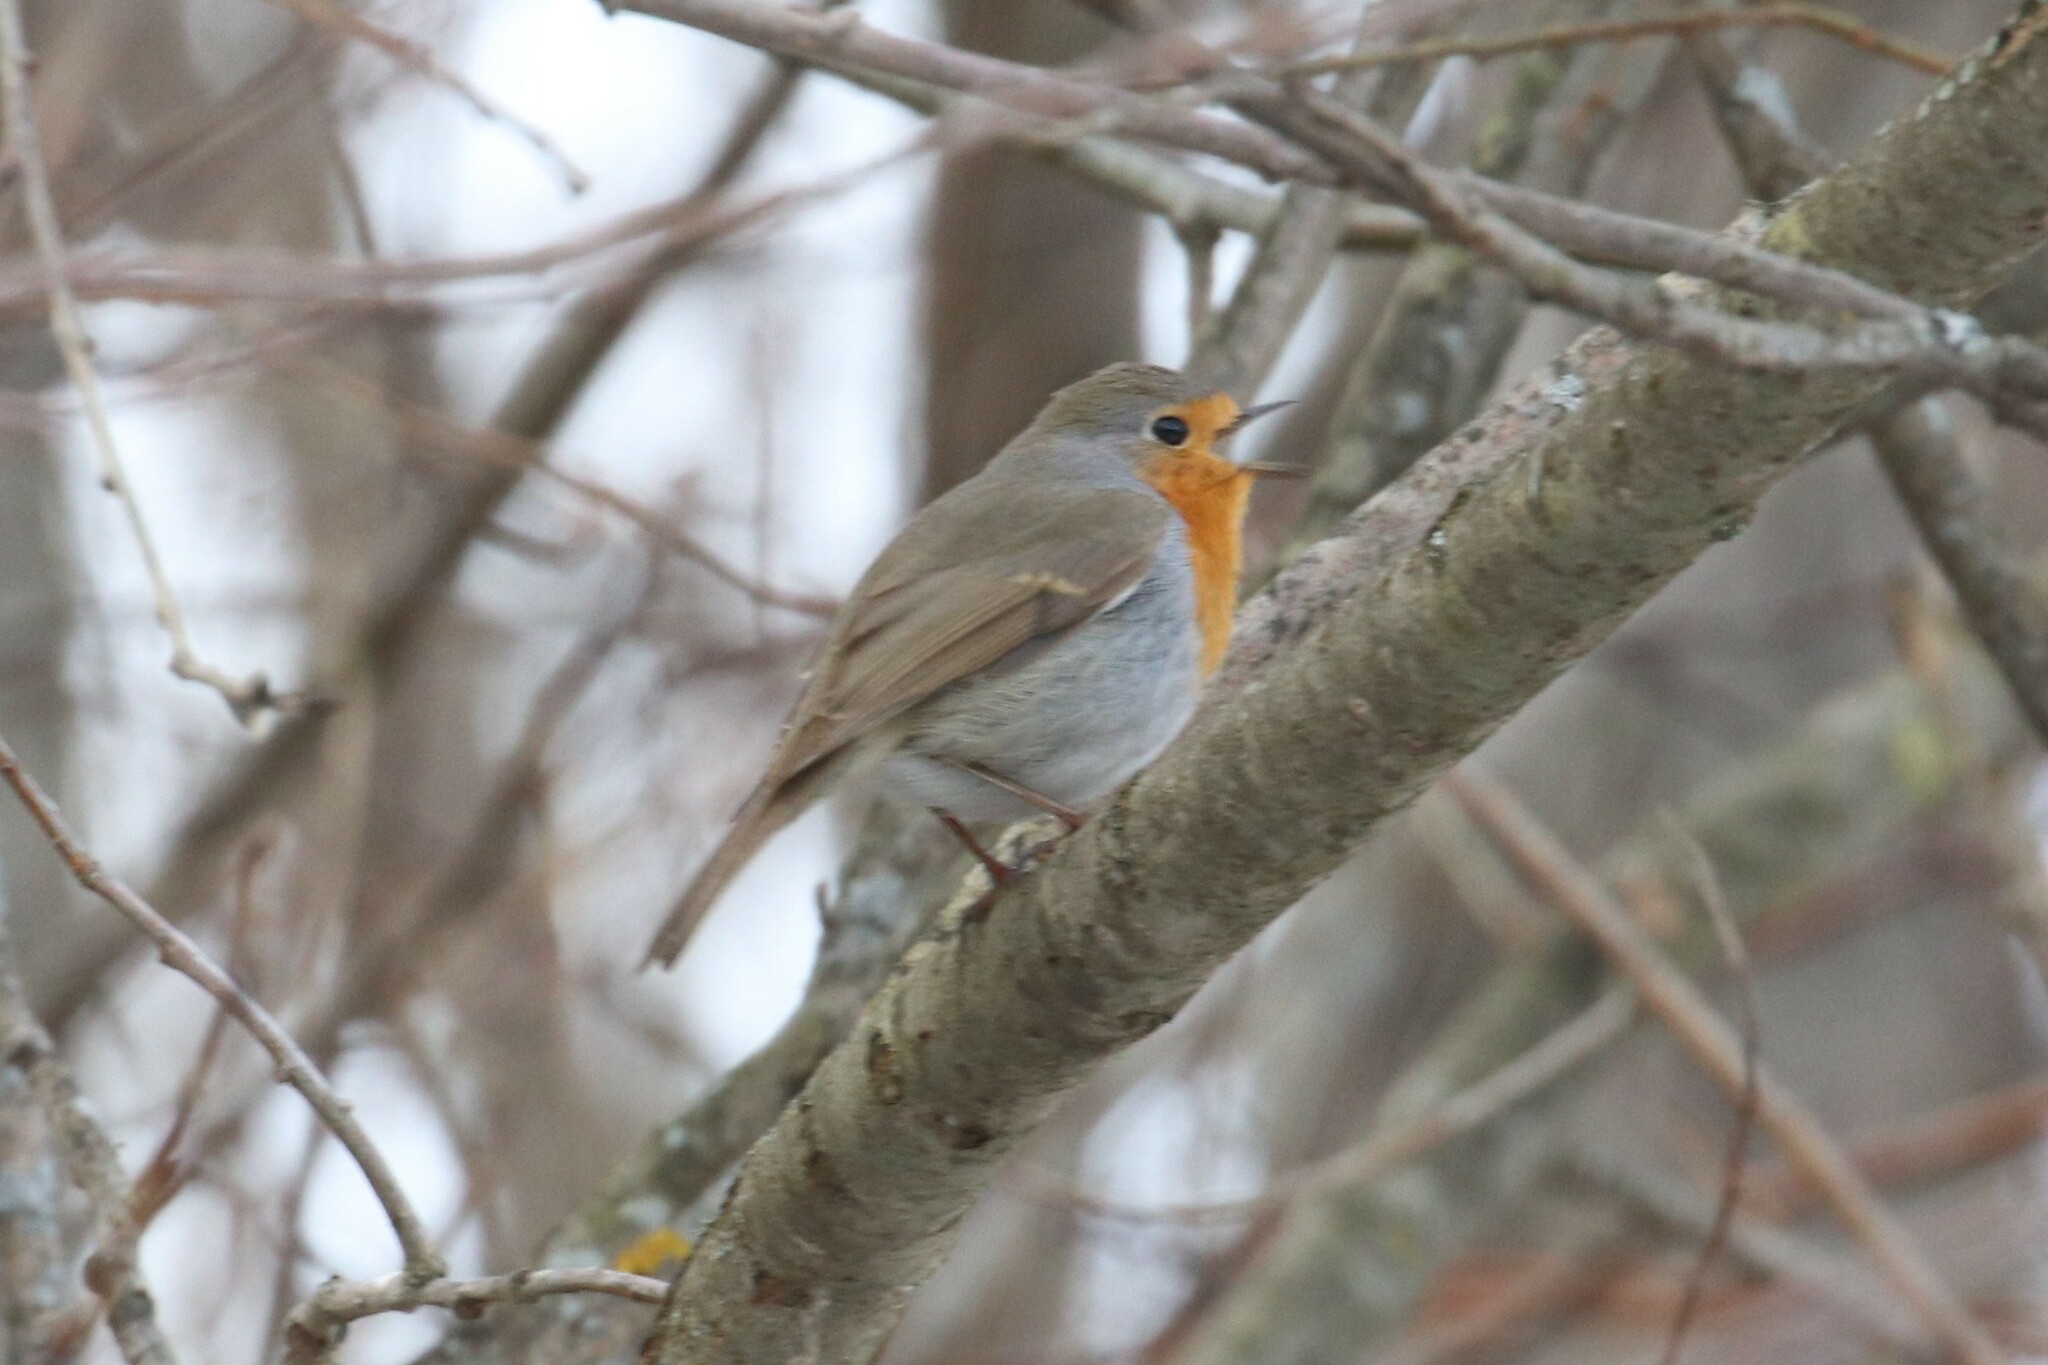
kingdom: Animalia
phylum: Chordata
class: Aves
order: Passeriformes
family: Muscicapidae
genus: Erithacus
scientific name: Erithacus rubecula
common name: European robin
